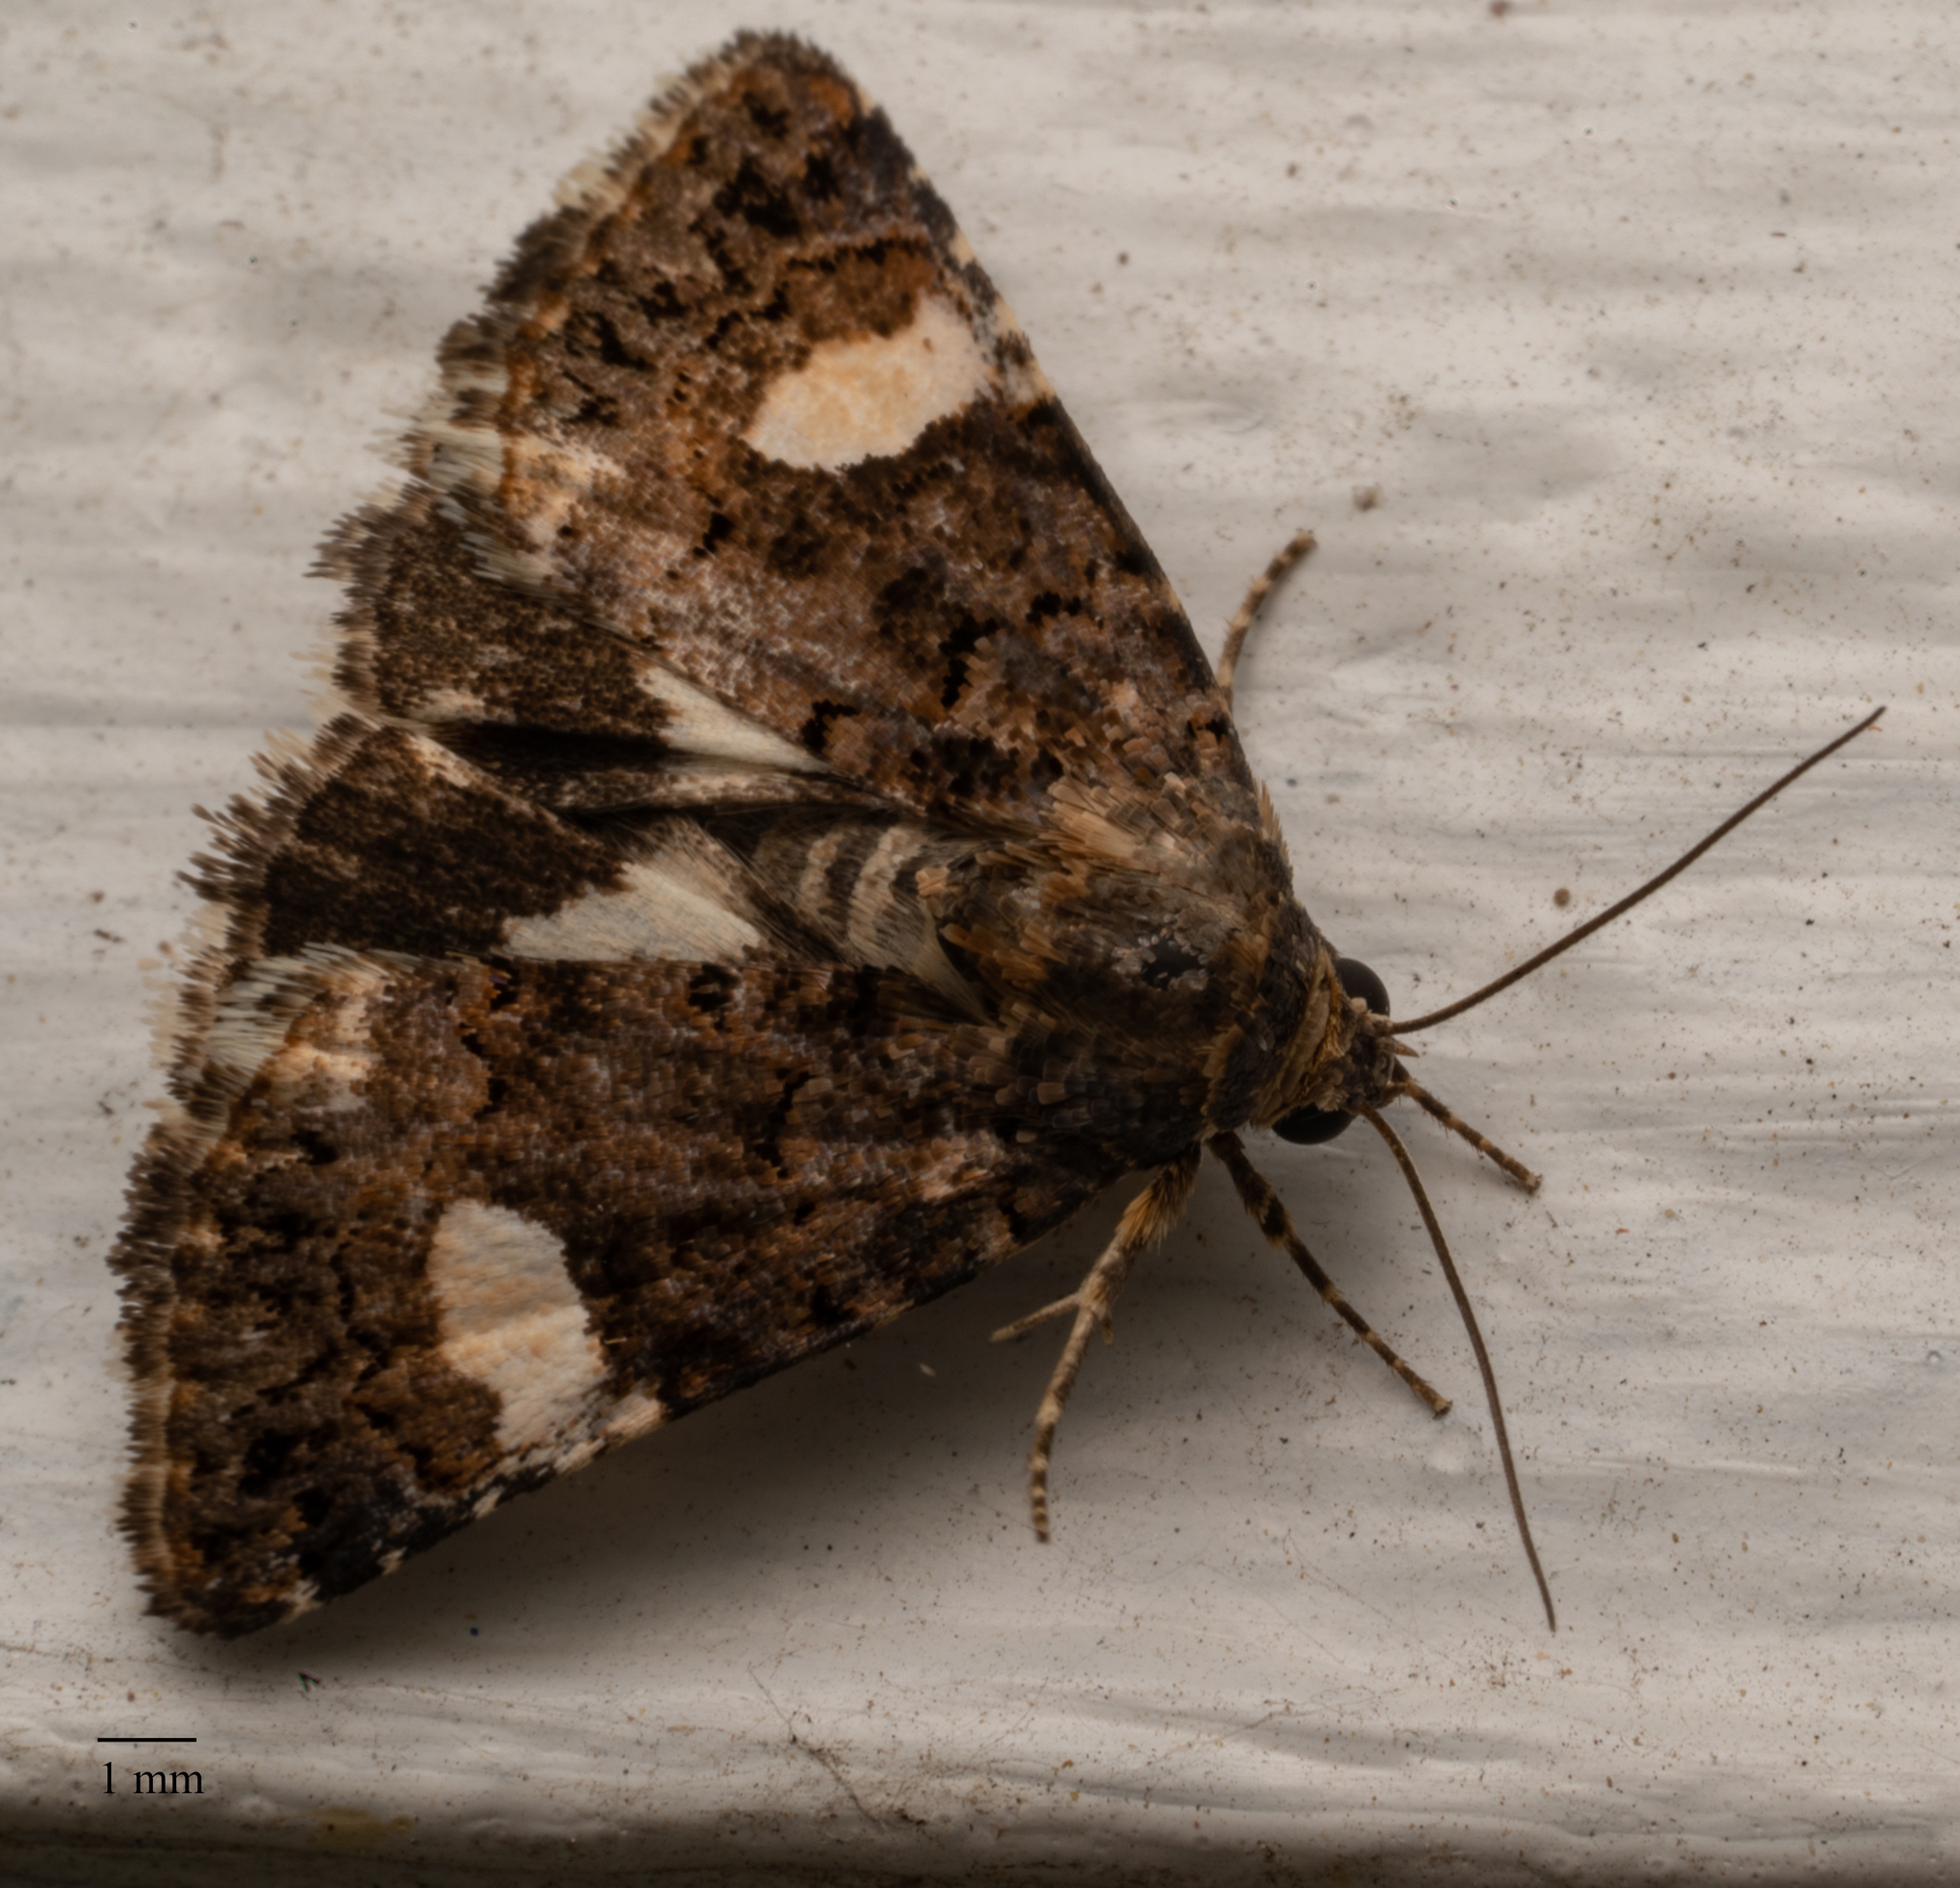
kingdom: Animalia
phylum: Arthropoda
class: Insecta
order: Lepidoptera
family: Erebidae
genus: Tyta
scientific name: Tyta luctuosa
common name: Four-spotted
